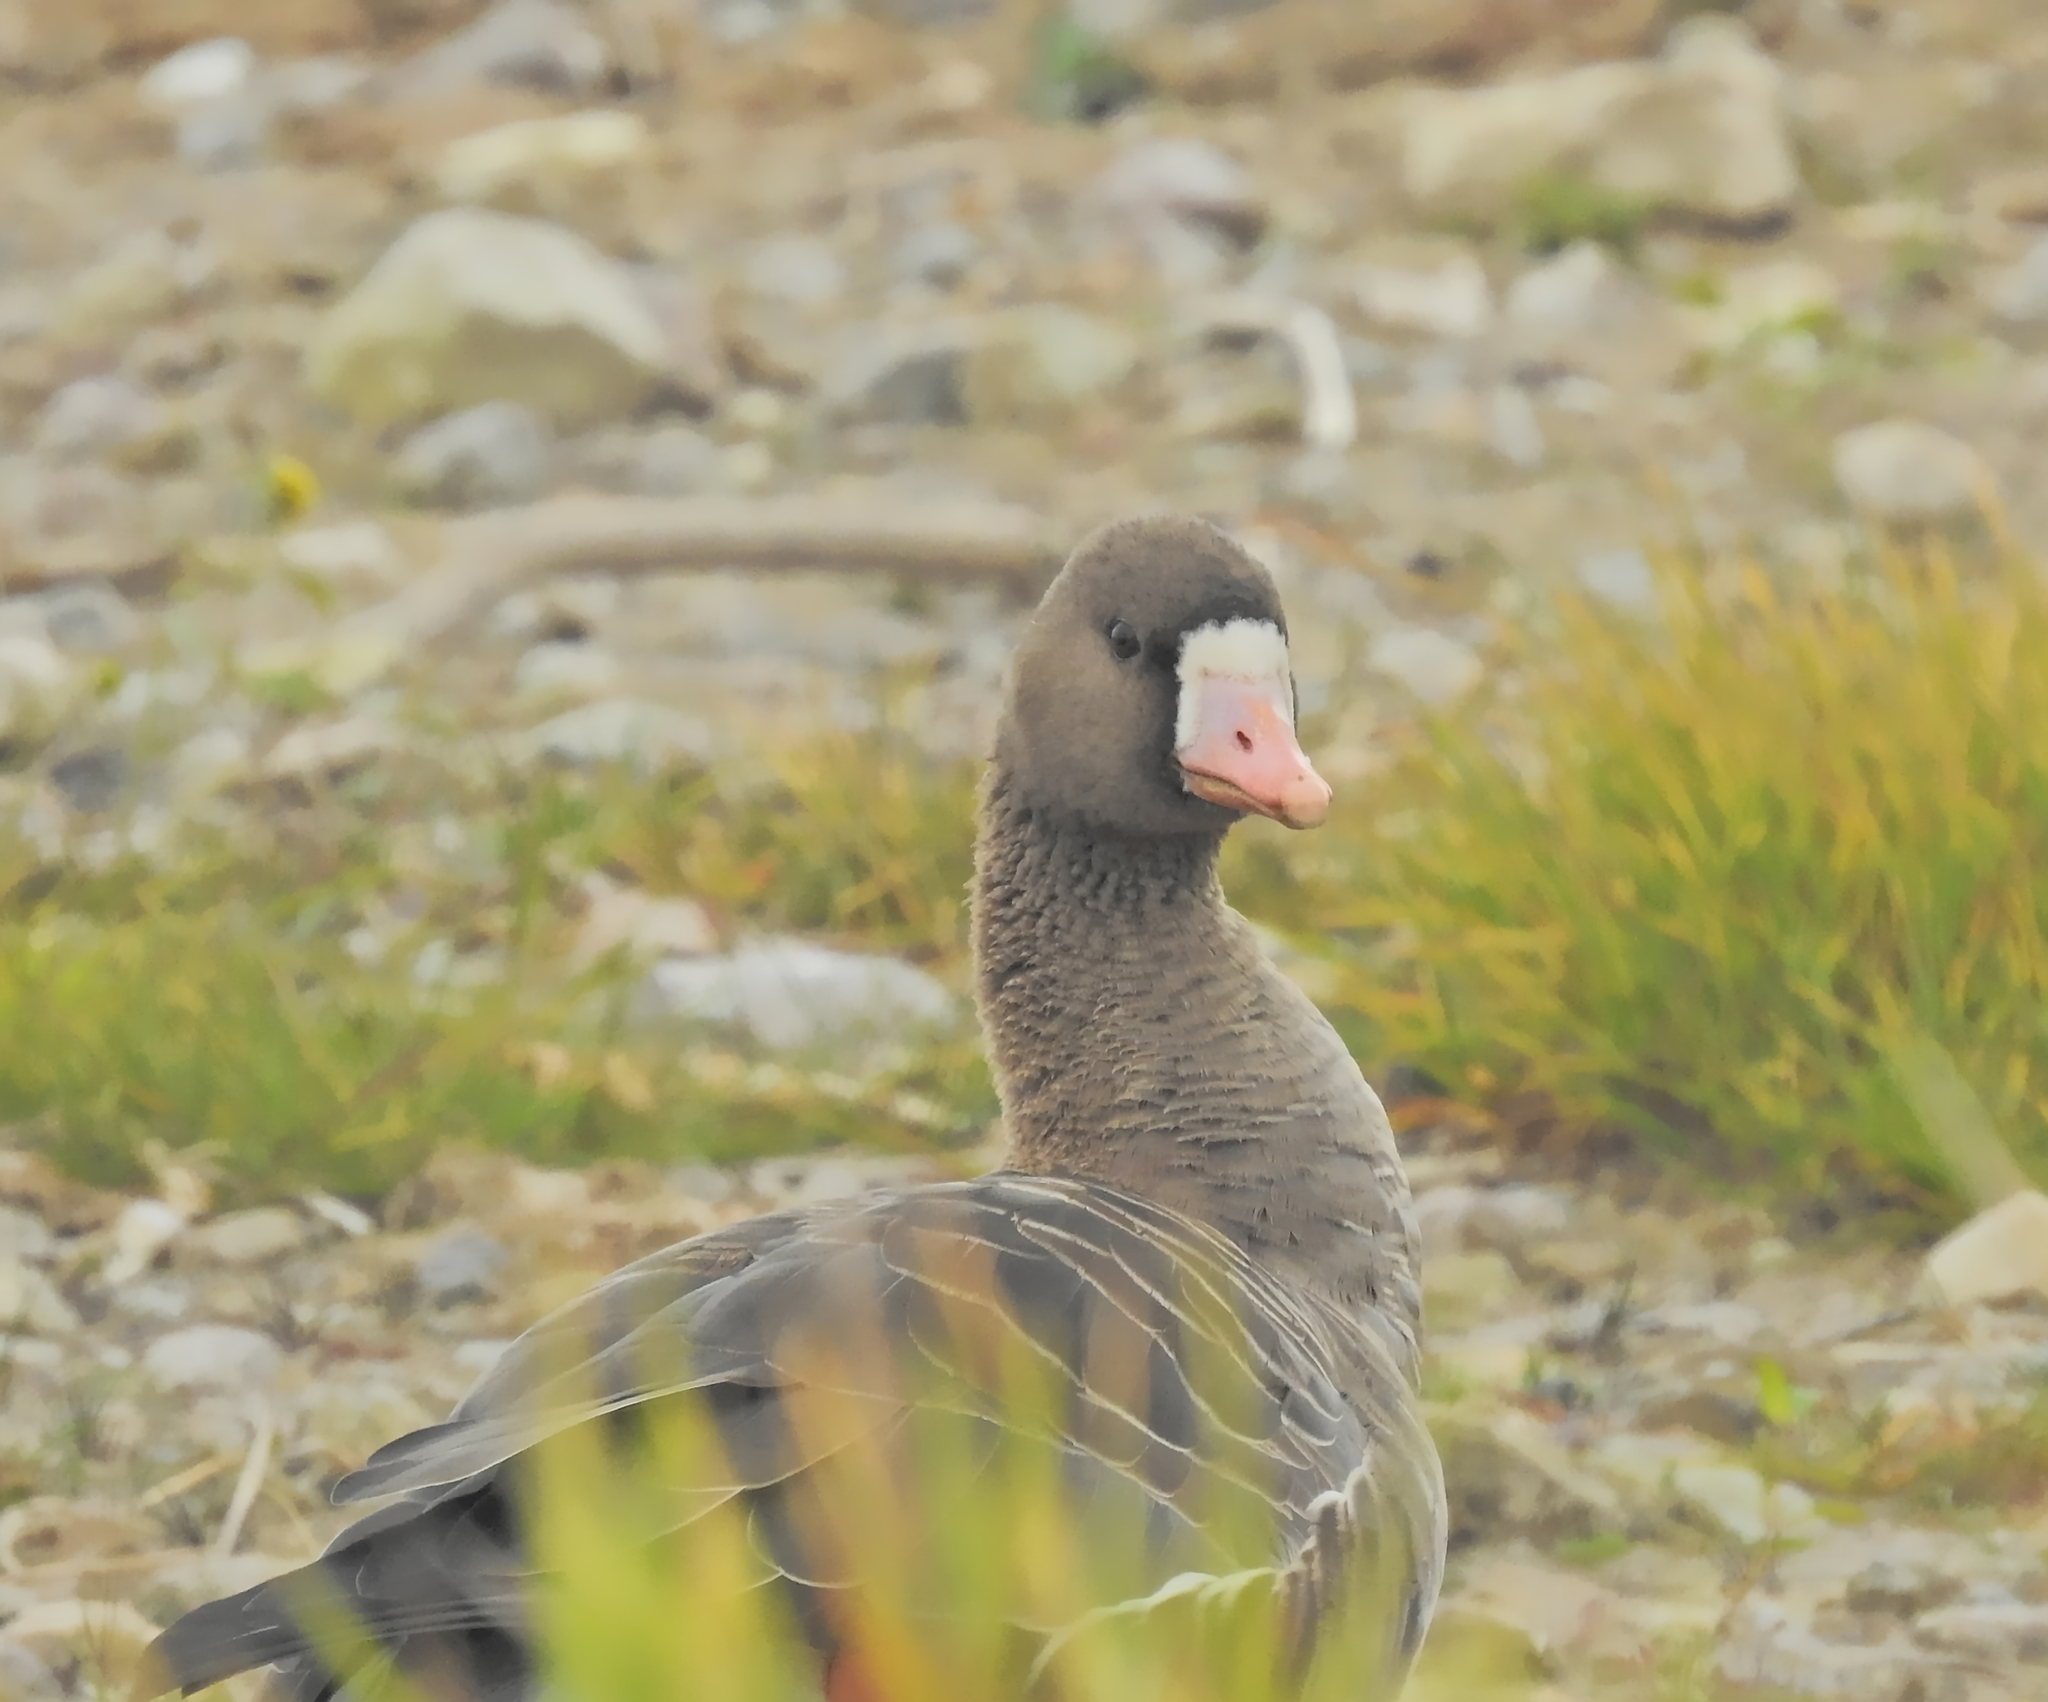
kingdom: Animalia
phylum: Chordata
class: Aves
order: Anseriformes
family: Anatidae
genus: Anser
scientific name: Anser albifrons
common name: Greater white-fronted goose
